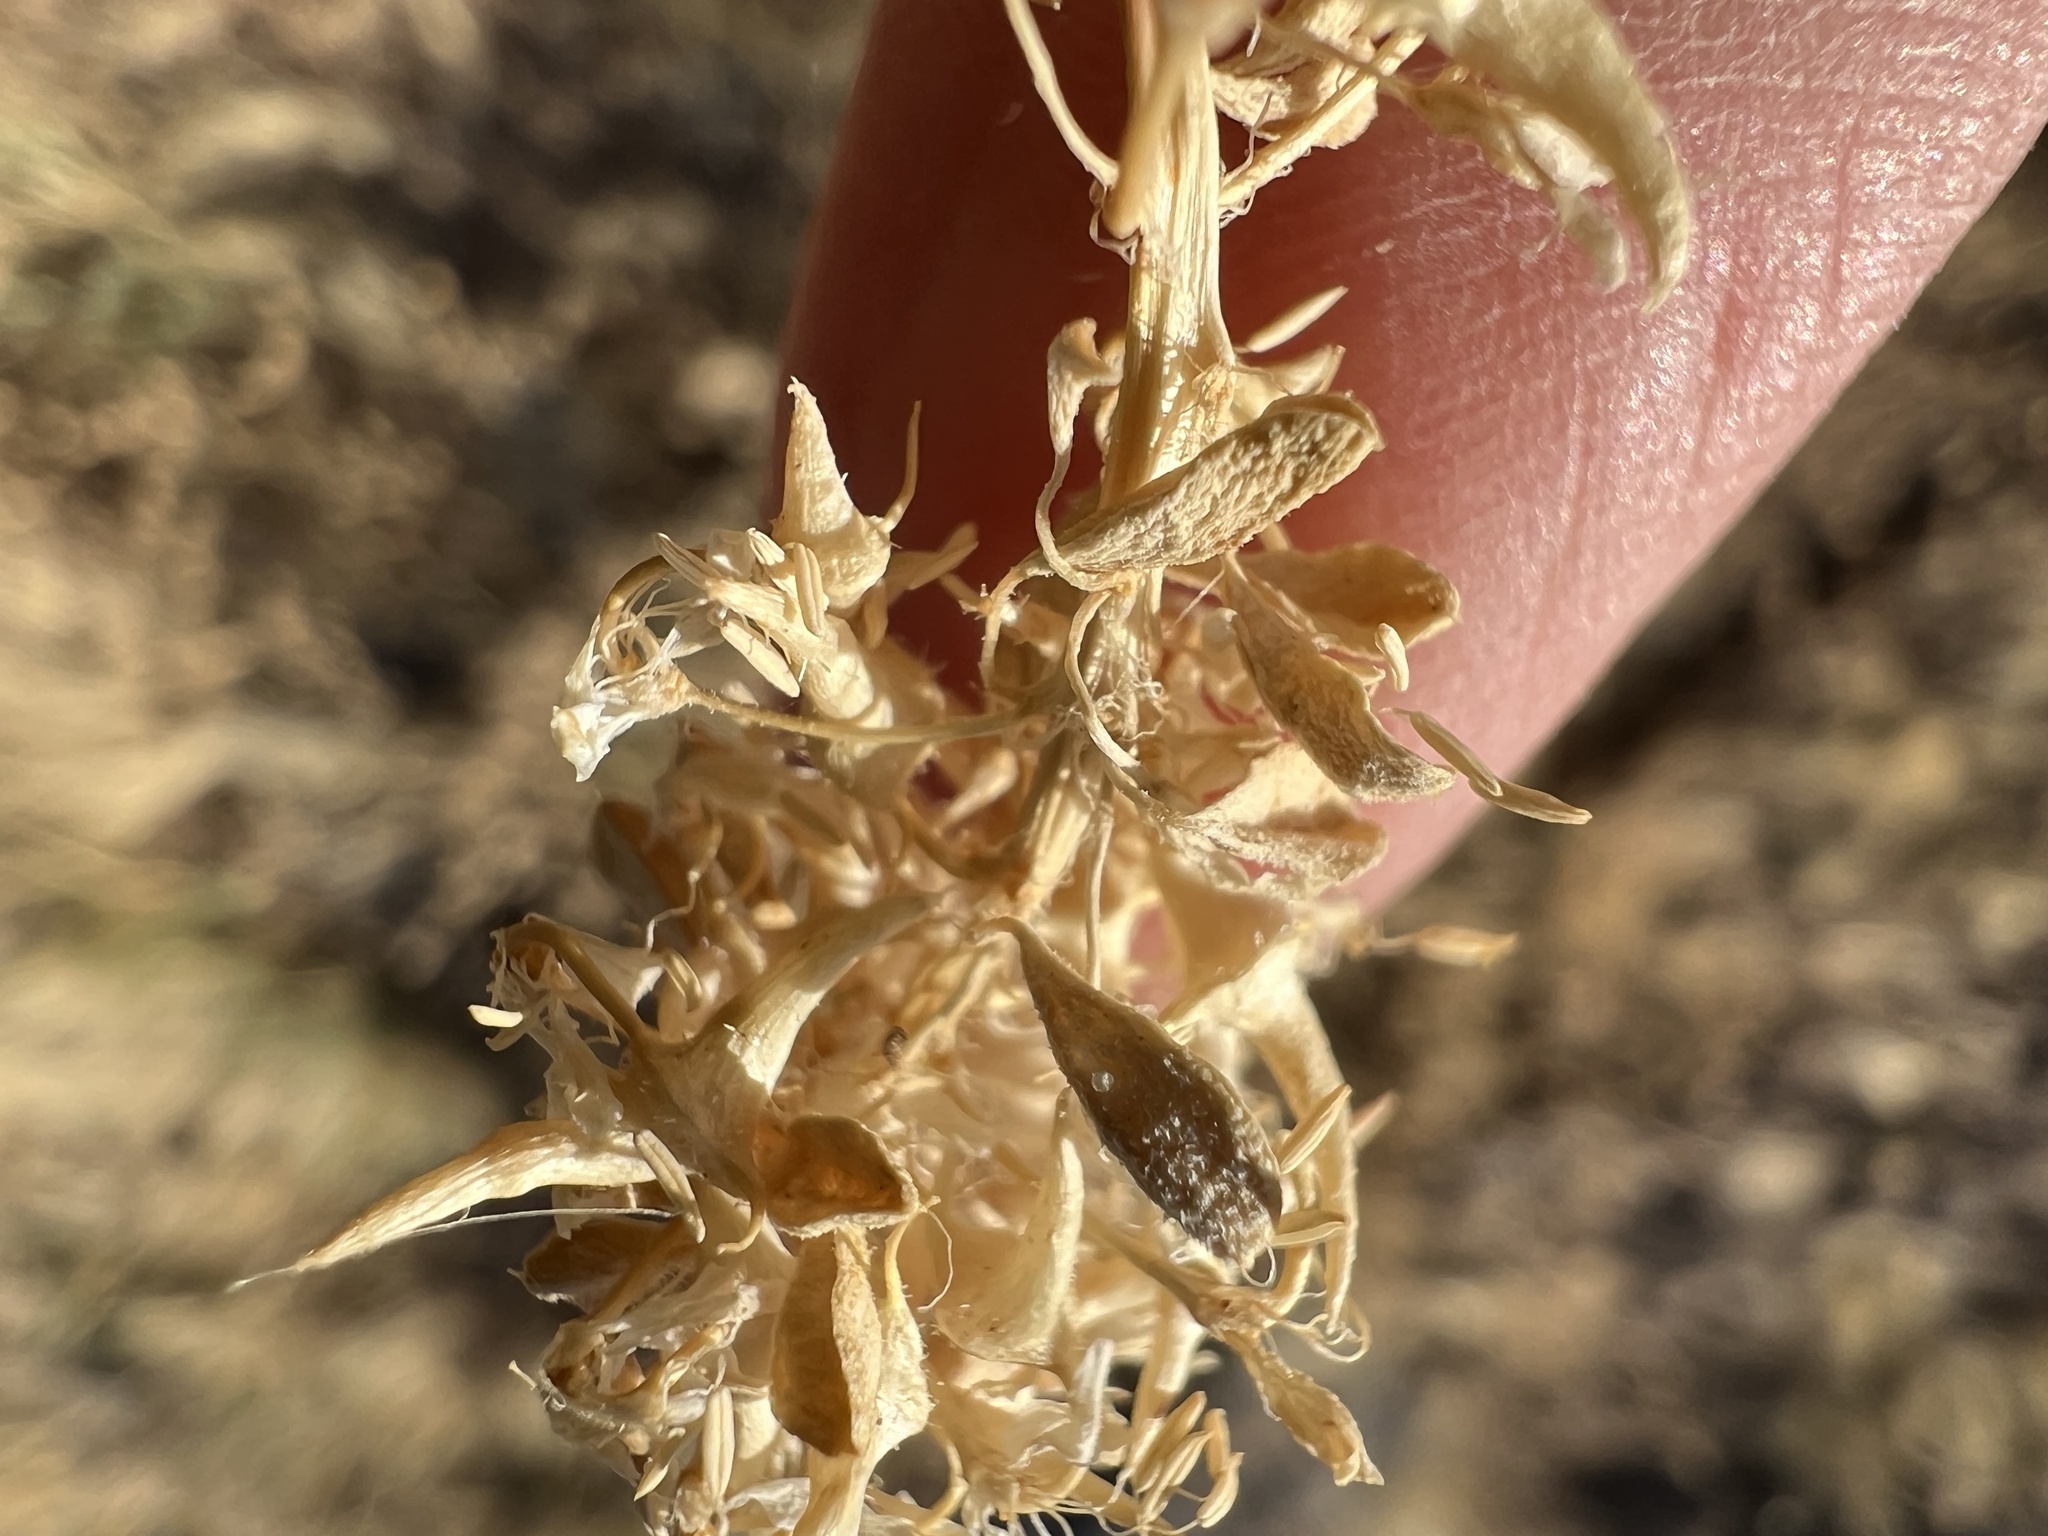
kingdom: Plantae
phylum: Tracheophyta
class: Magnoliopsida
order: Brassicales
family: Cleomaceae
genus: Cleomella
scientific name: Cleomella obtusifolia
